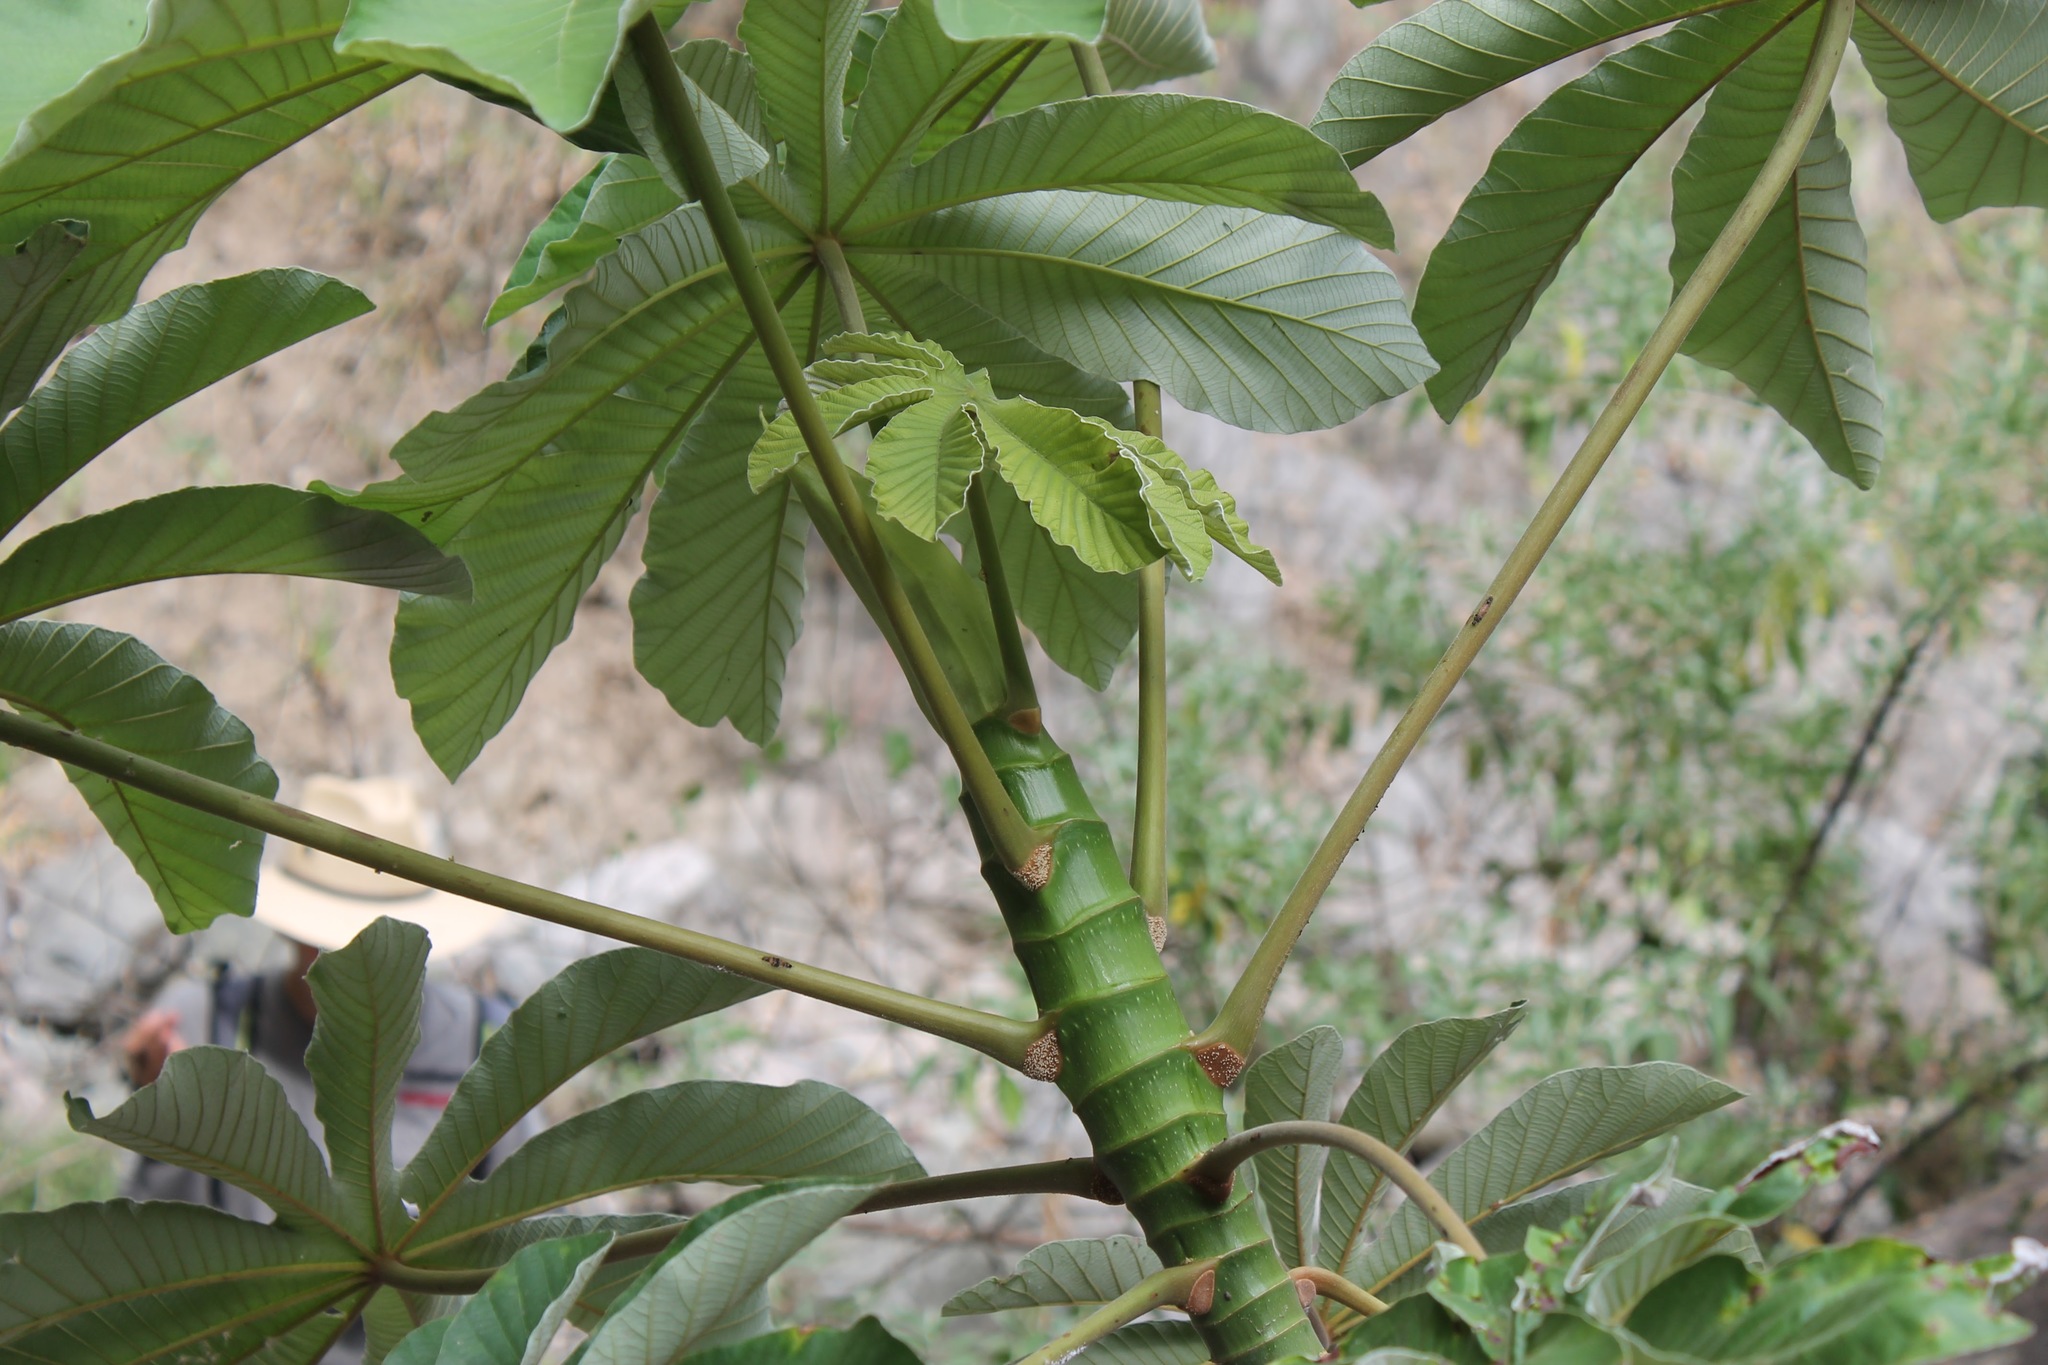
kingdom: Plantae
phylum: Tracheophyta
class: Magnoliopsida
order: Rosales
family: Urticaceae
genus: Cecropia
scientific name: Cecropia obtusifolia
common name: Trumpet tree
